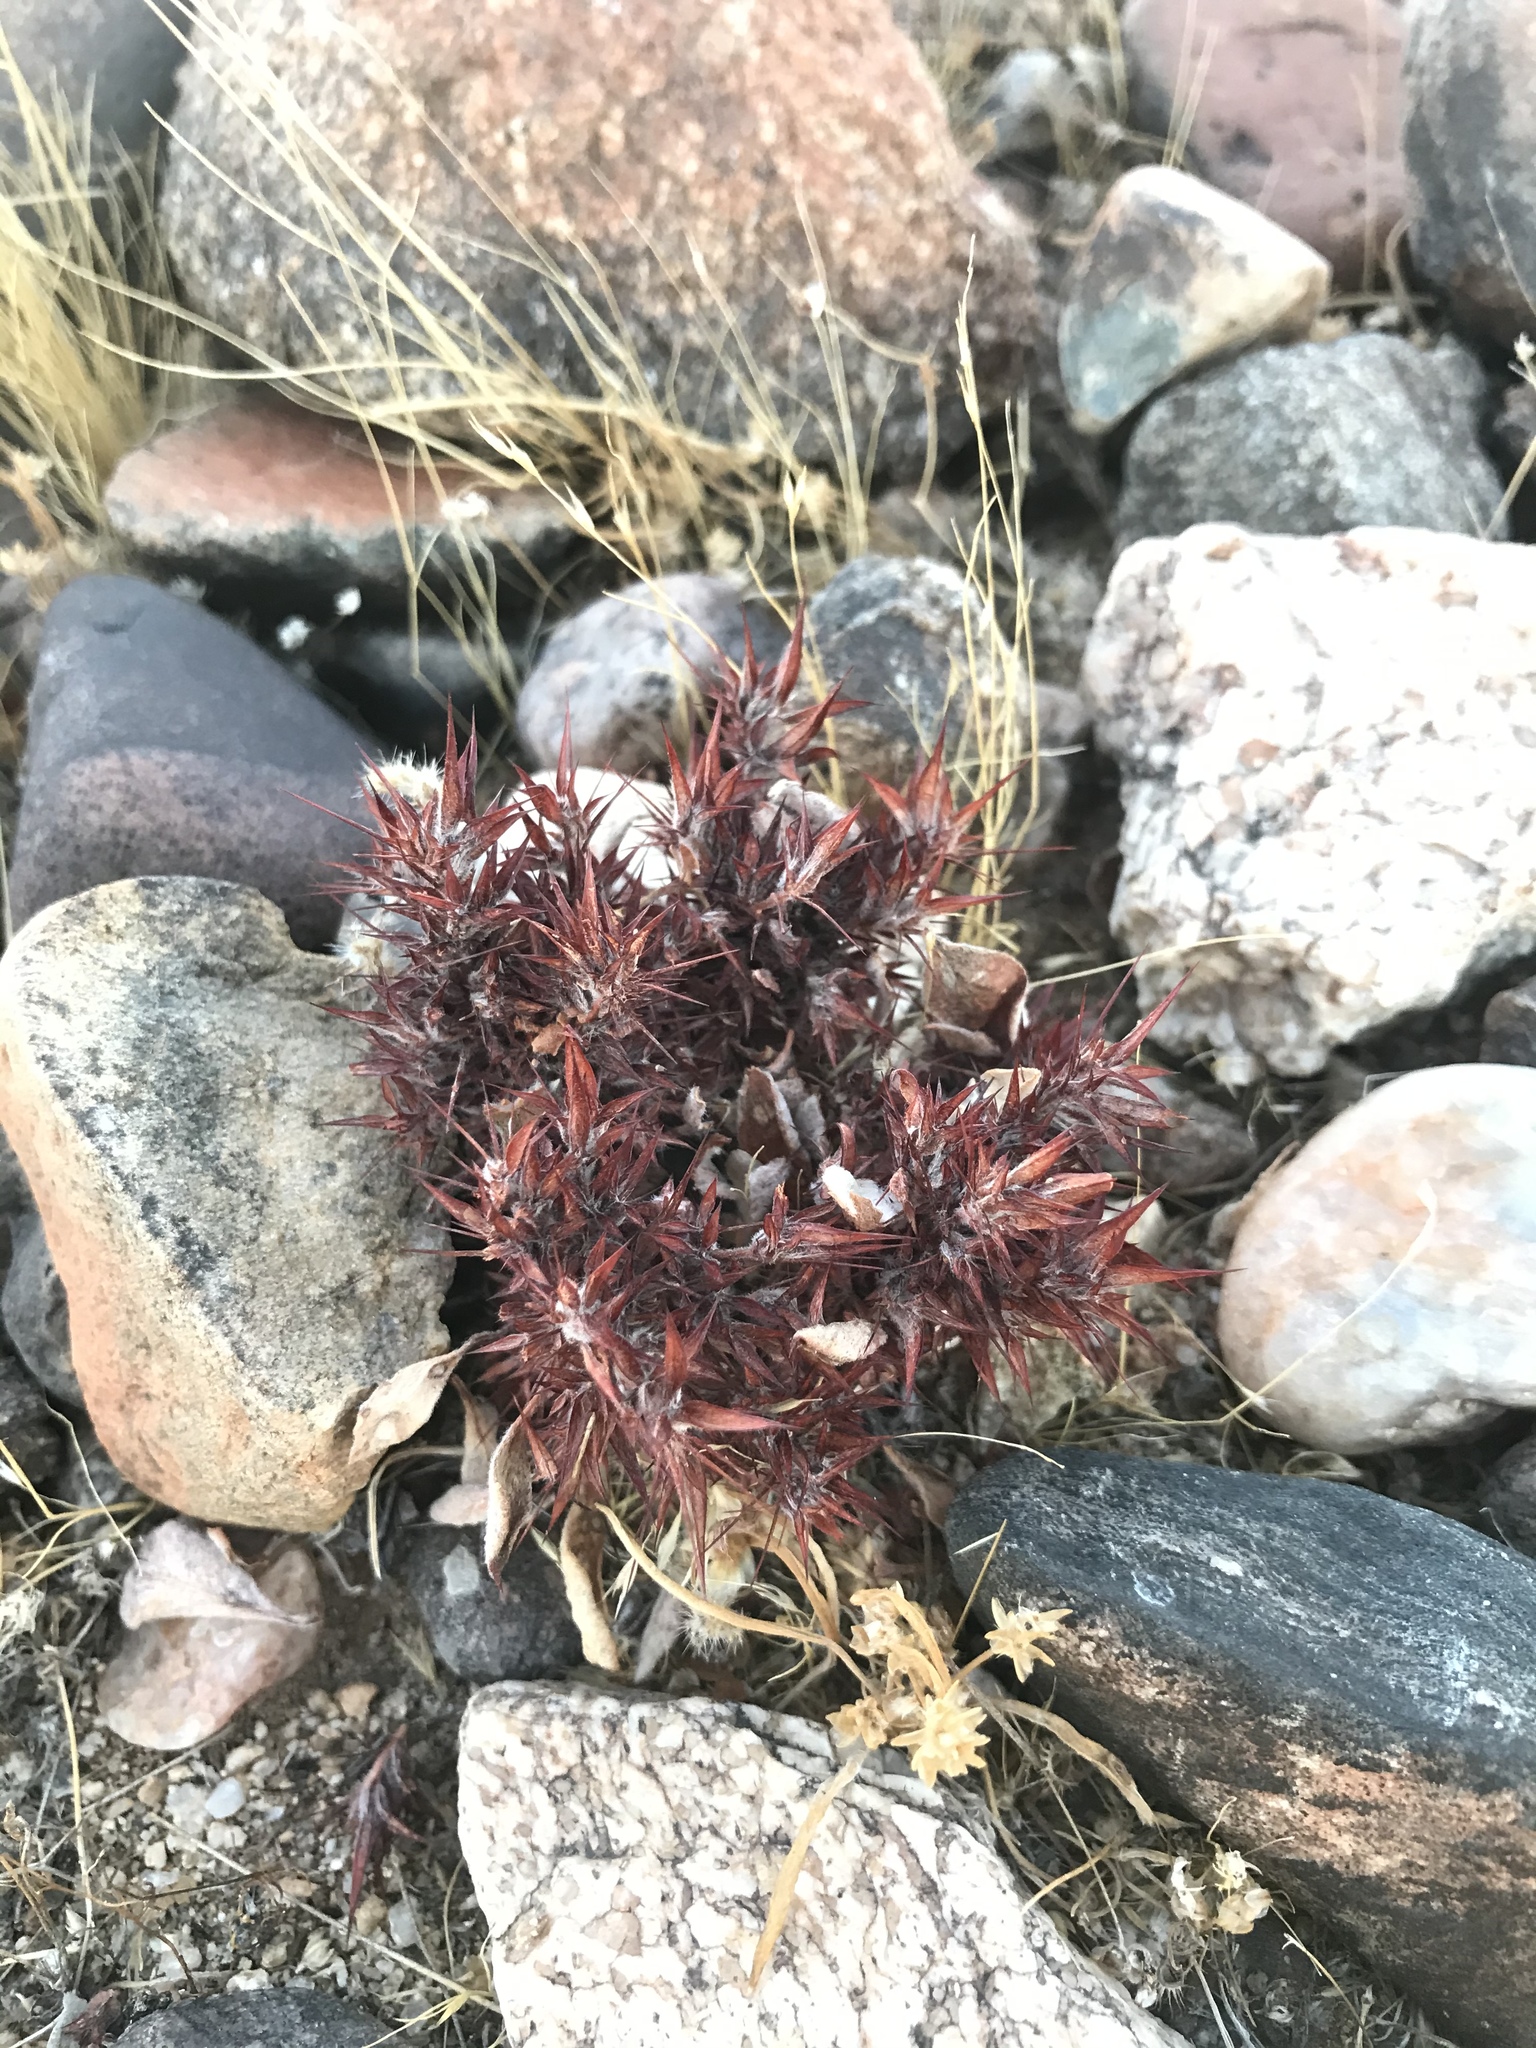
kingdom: Plantae
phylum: Tracheophyta
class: Magnoliopsida
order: Caryophyllales
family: Polygonaceae
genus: Chorizanthe
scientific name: Chorizanthe rigida
